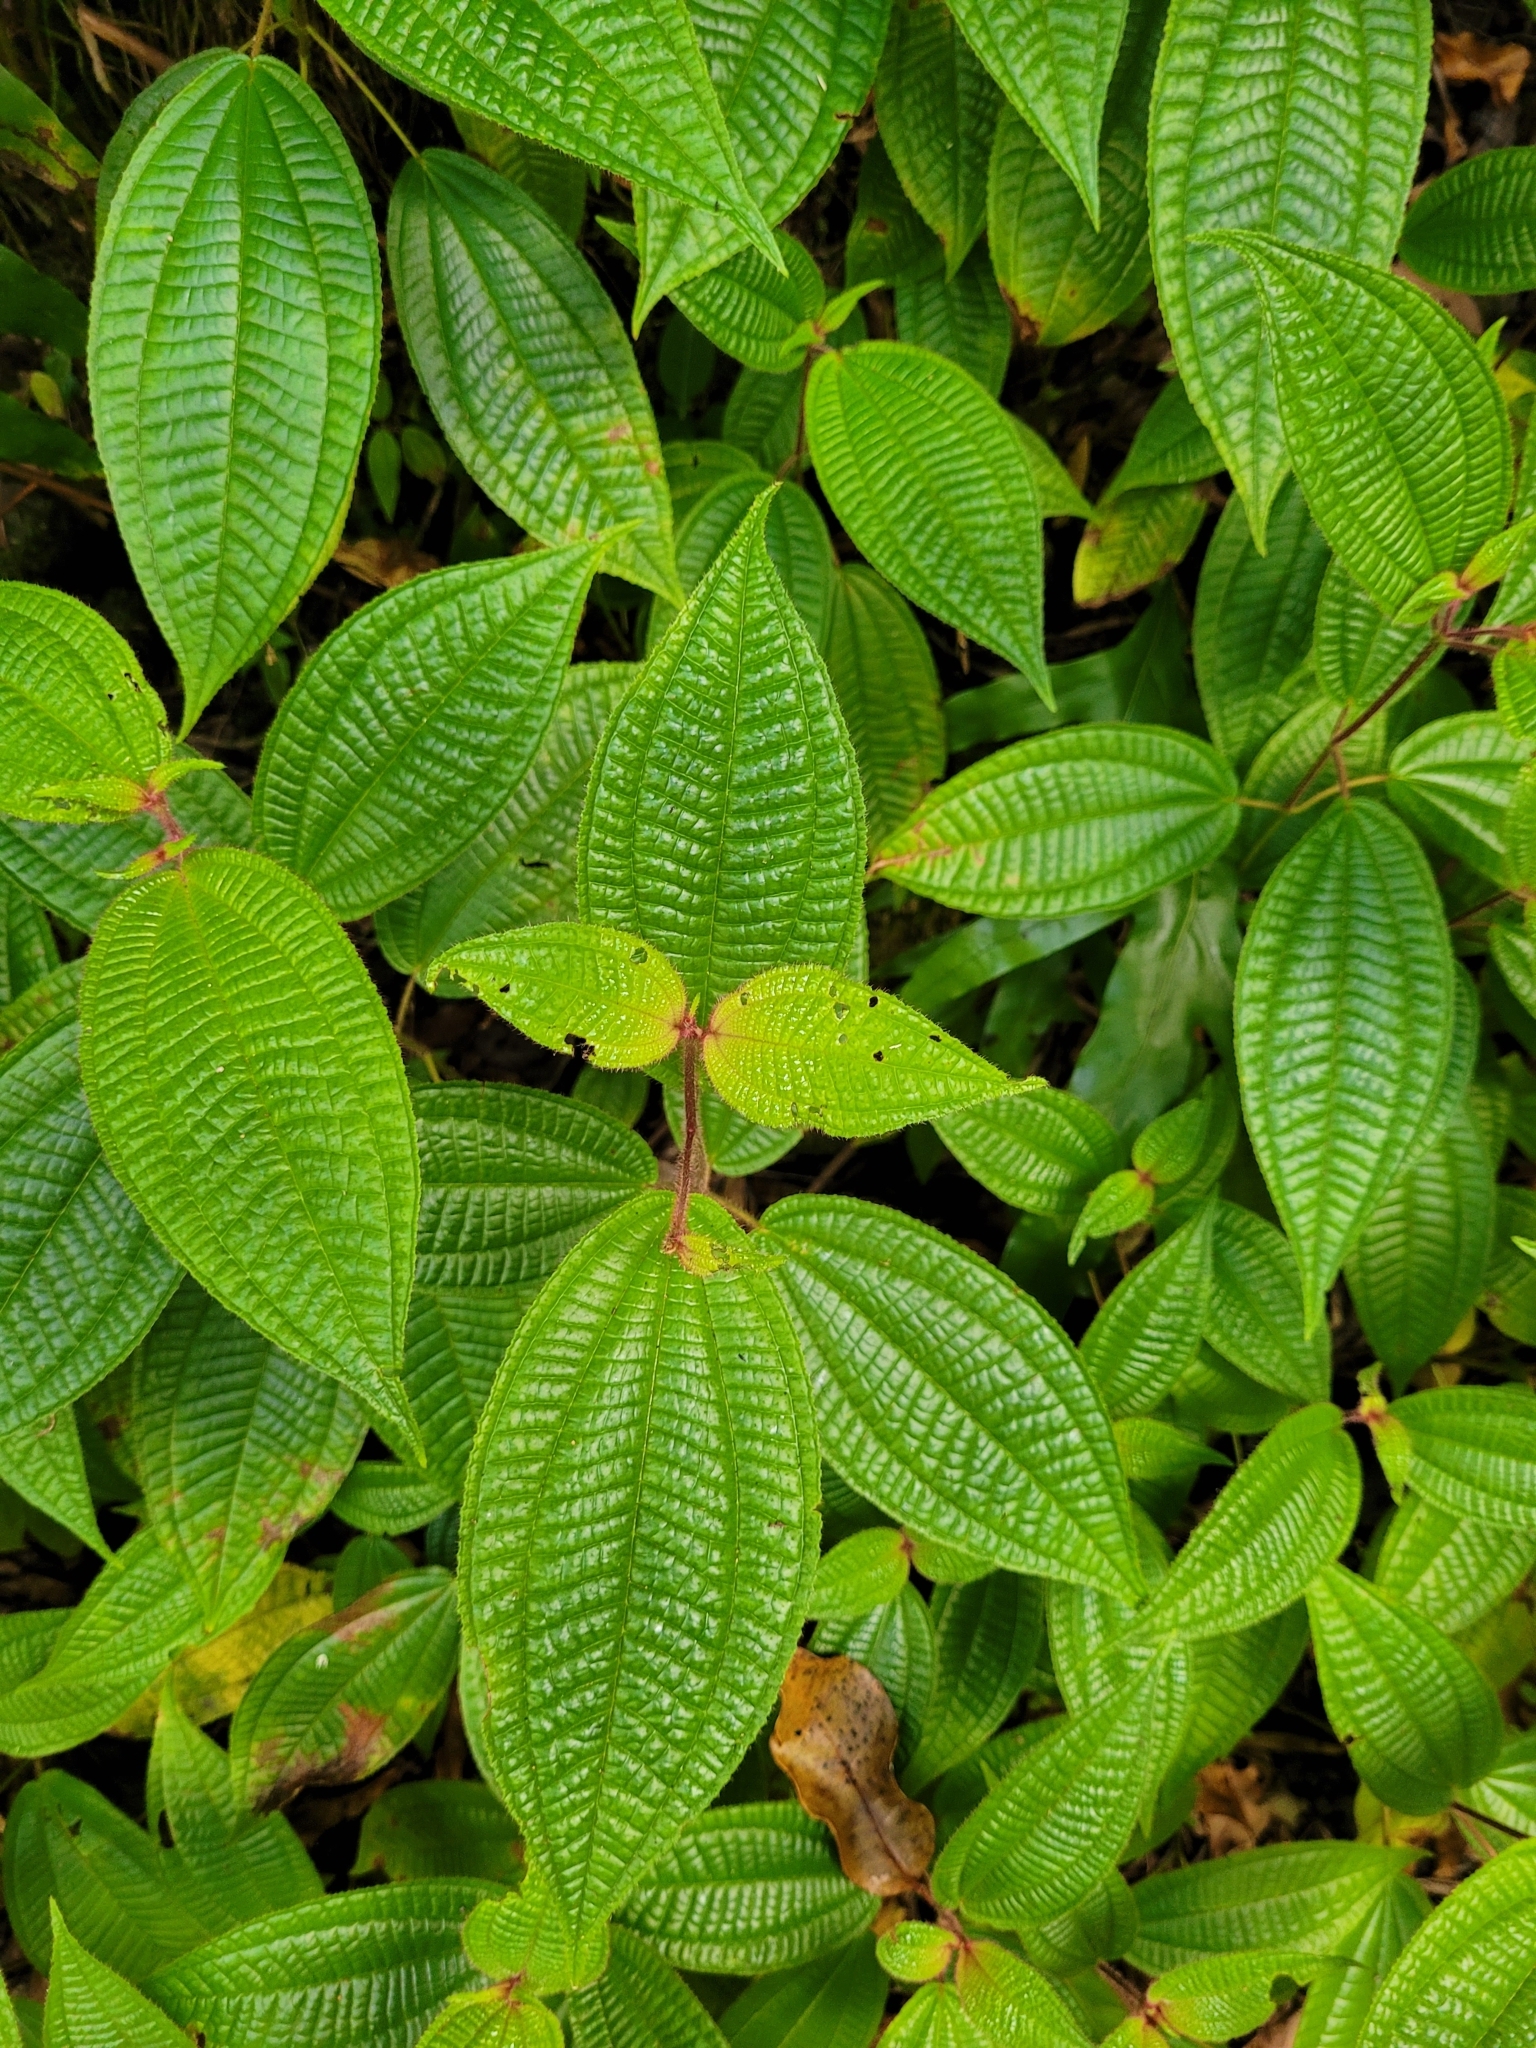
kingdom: Plantae
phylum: Tracheophyta
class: Magnoliopsida
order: Myrtales
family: Melastomataceae
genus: Miconia
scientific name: Miconia crenata
